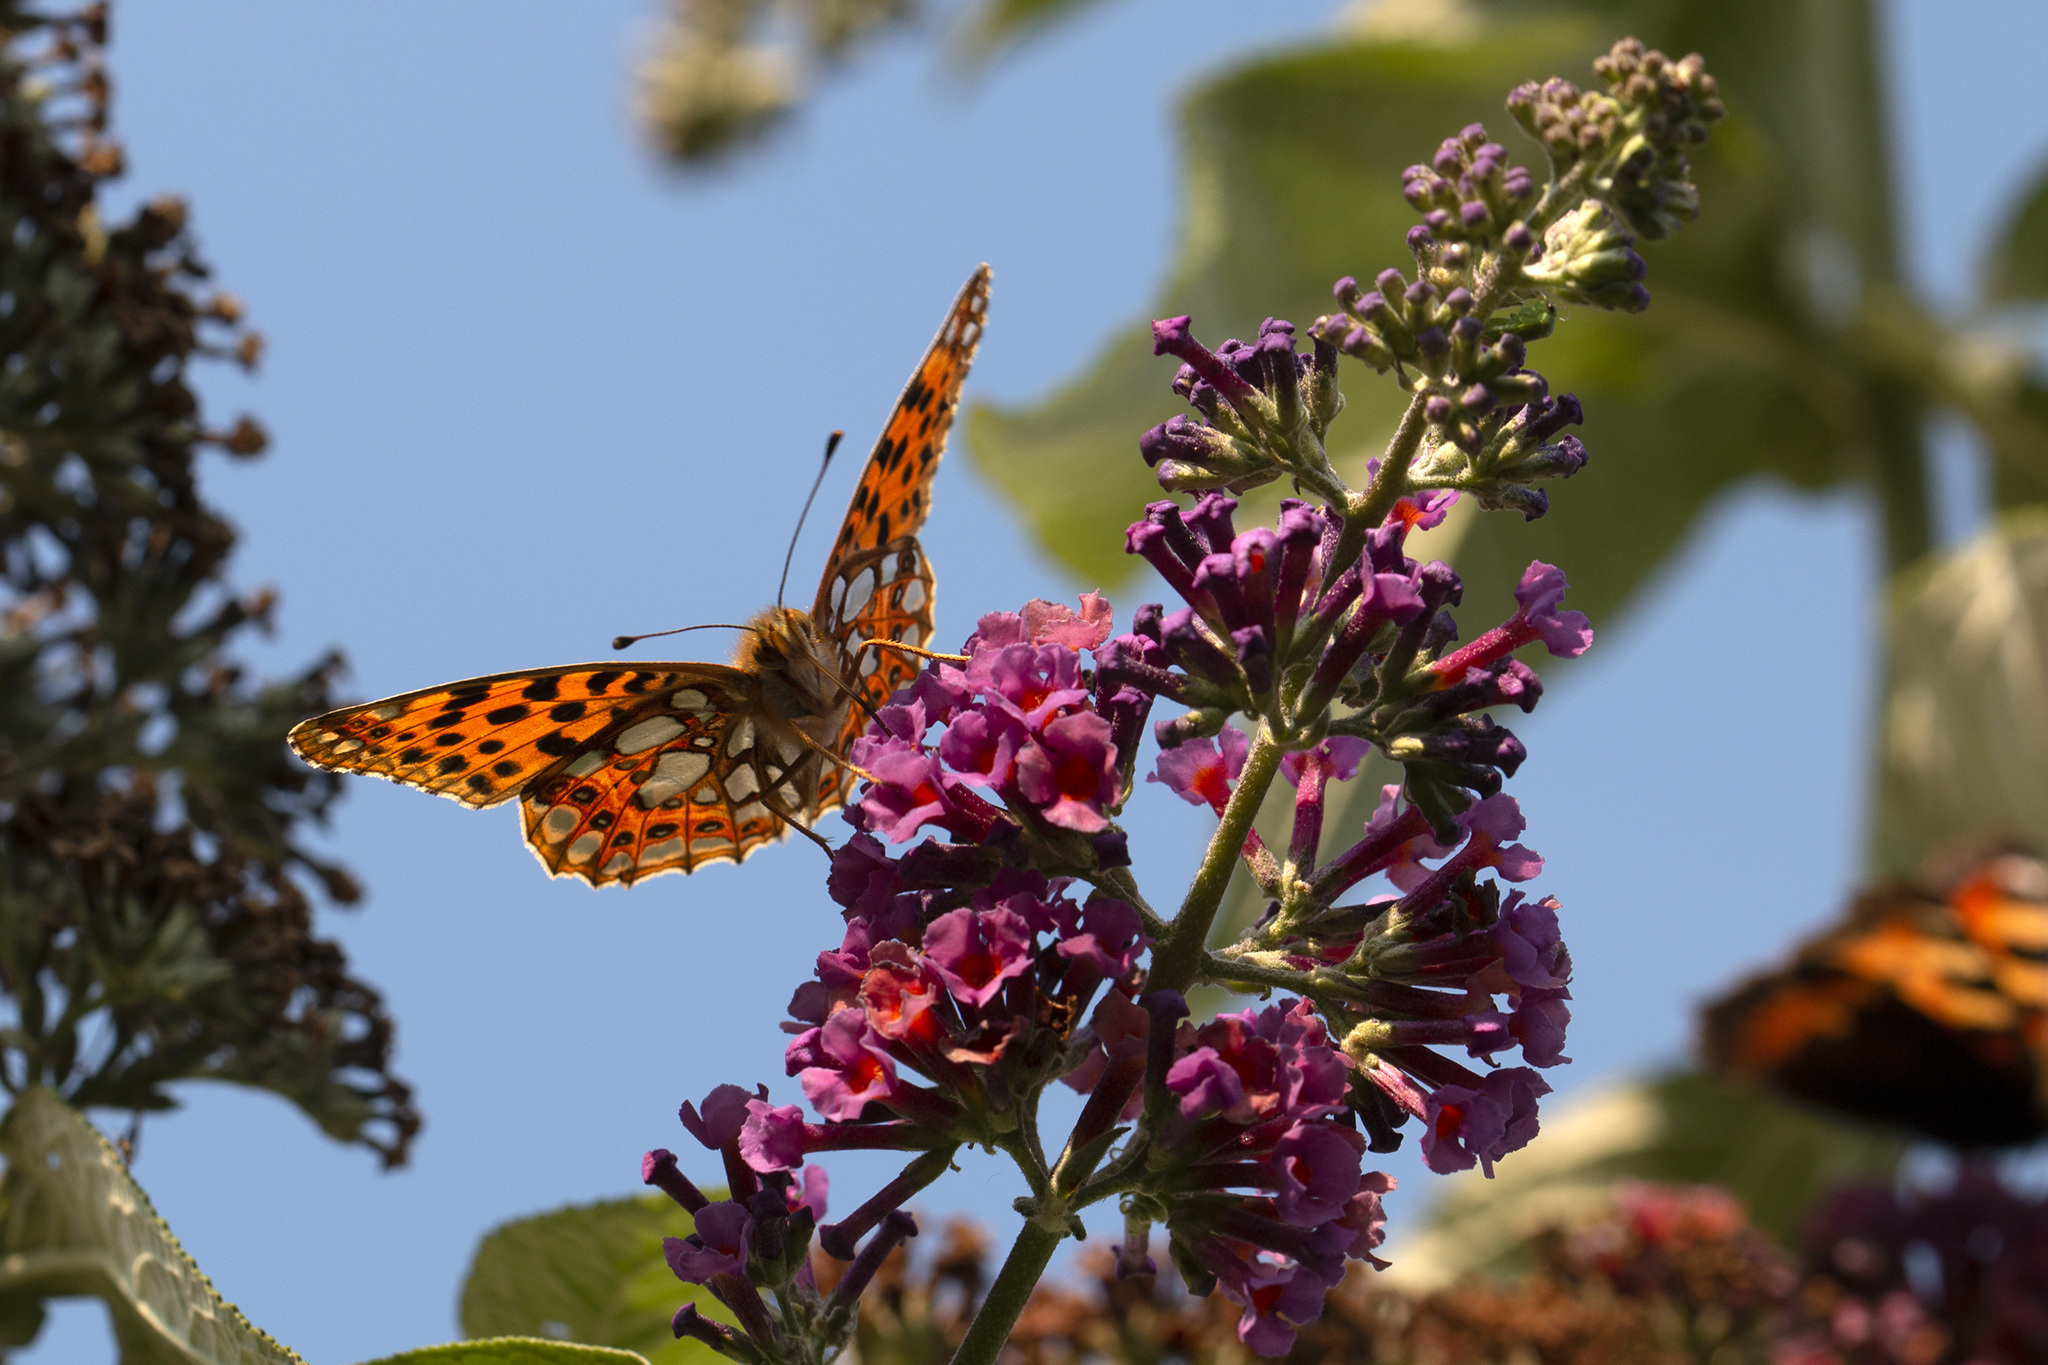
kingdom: Animalia
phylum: Arthropoda
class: Insecta
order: Lepidoptera
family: Nymphalidae
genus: Issoria
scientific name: Issoria lathonia
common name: Queen of spain fritillary
